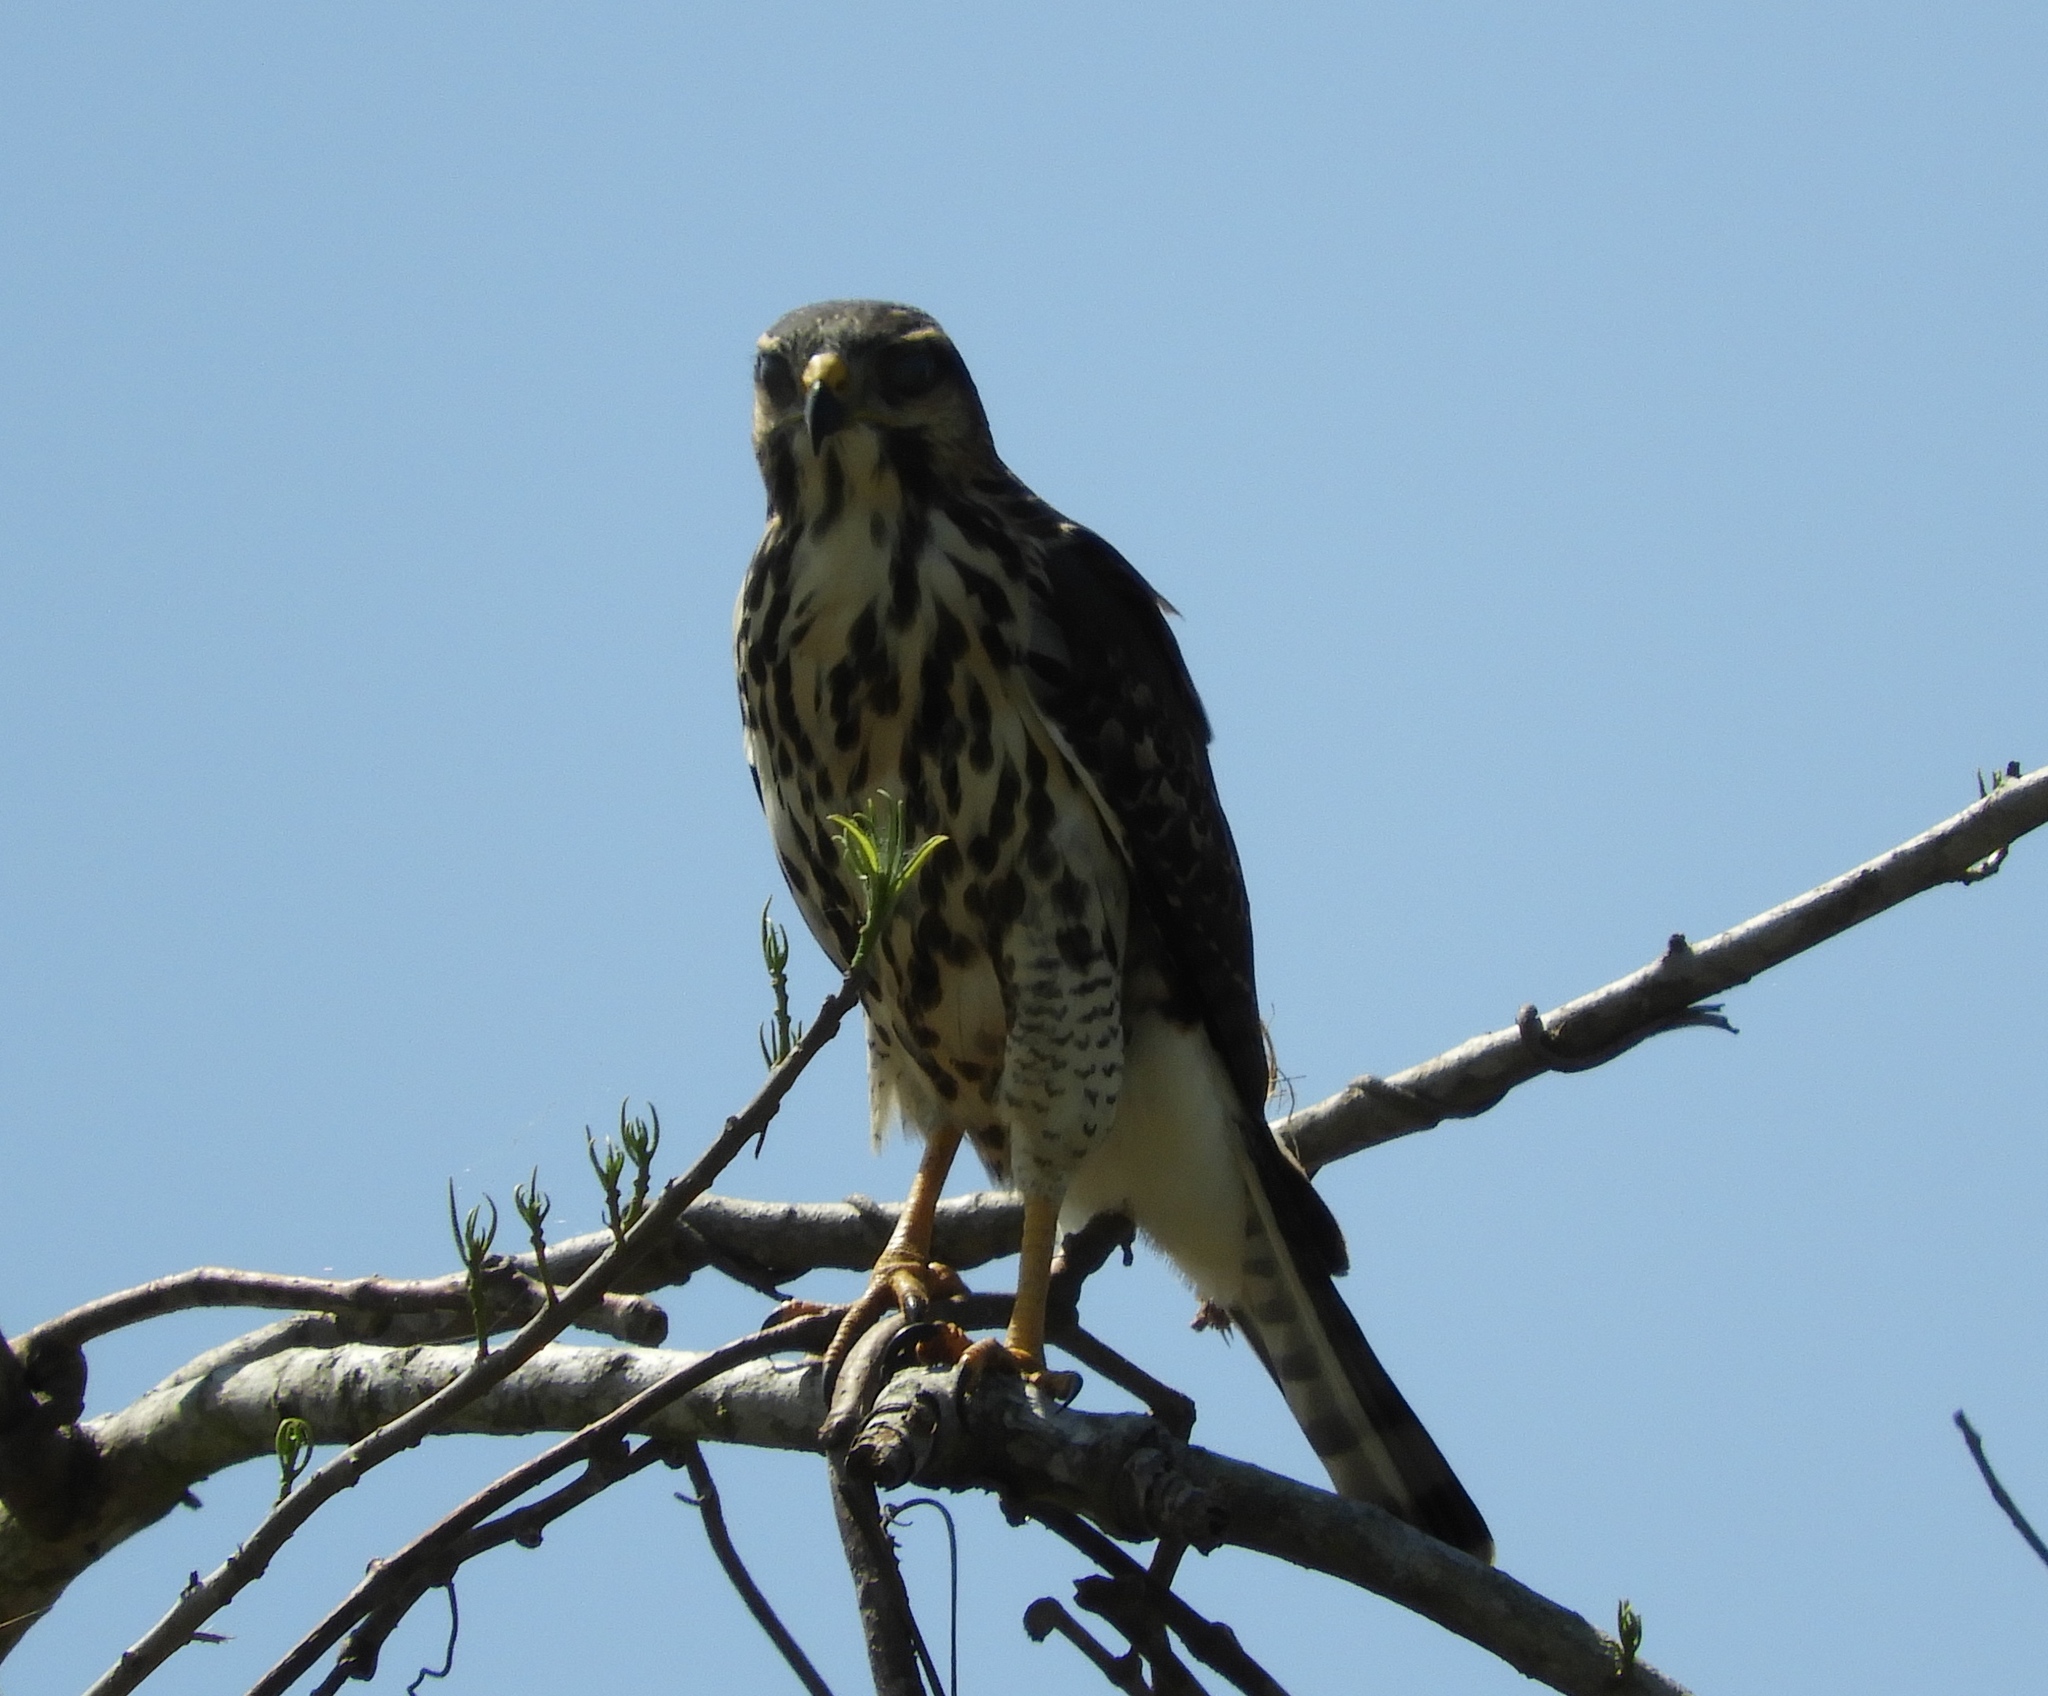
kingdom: Animalia
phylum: Chordata
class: Aves
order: Accipitriformes
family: Accipitridae
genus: Buteo
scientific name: Buteo nitidus
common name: Grey-lined hawk
